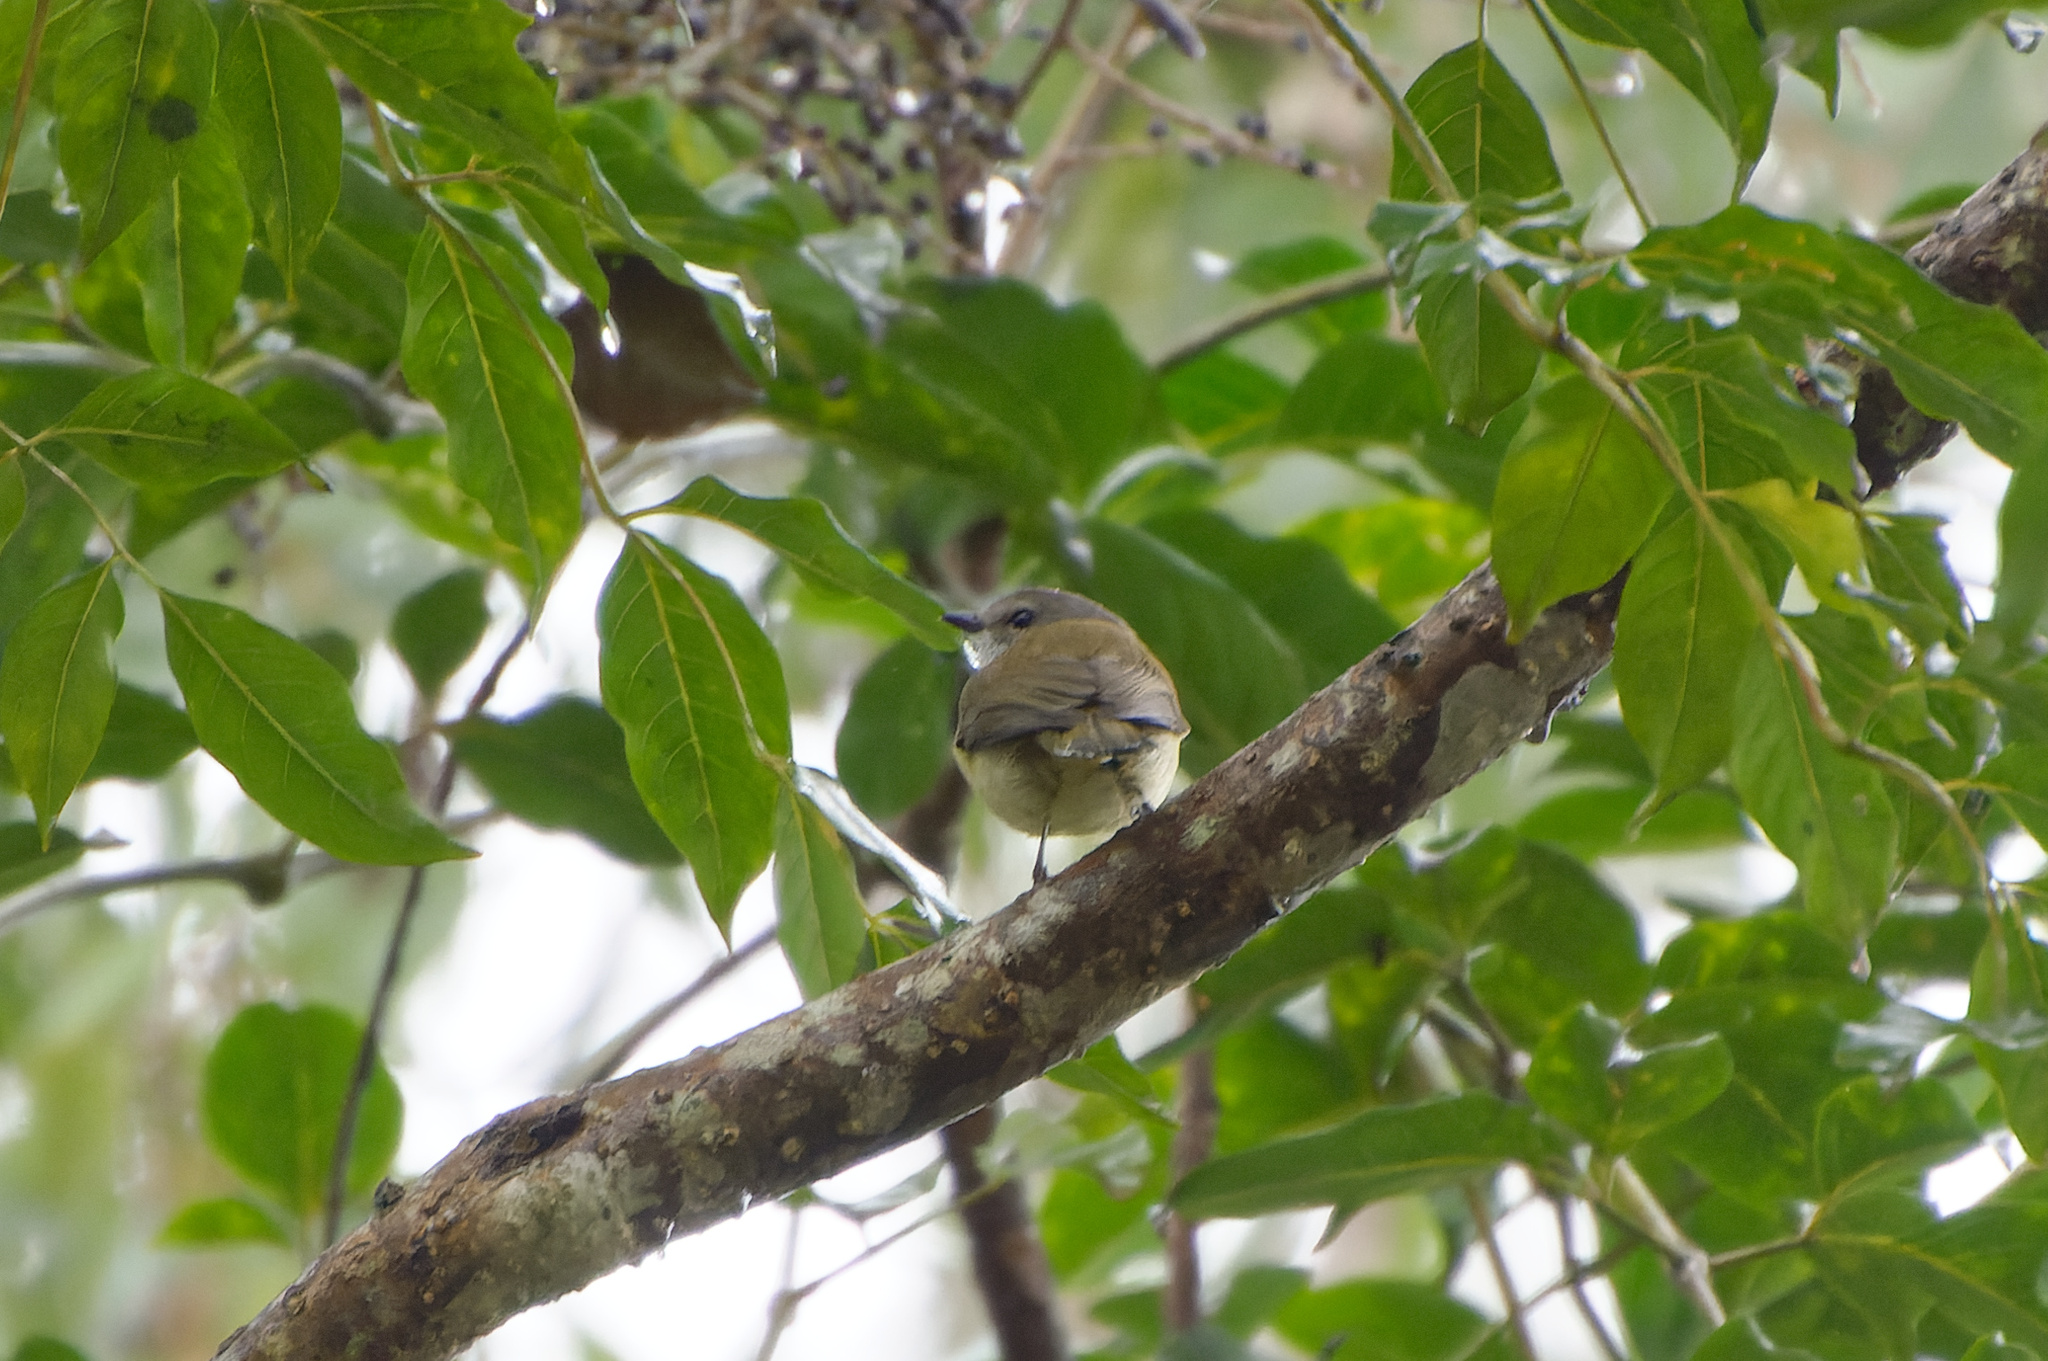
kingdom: Animalia
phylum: Chordata
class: Aves
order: Passeriformes
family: Pachycephalidae
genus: Pachycephala
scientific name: Pachycephala simplex
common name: Grey whistler
